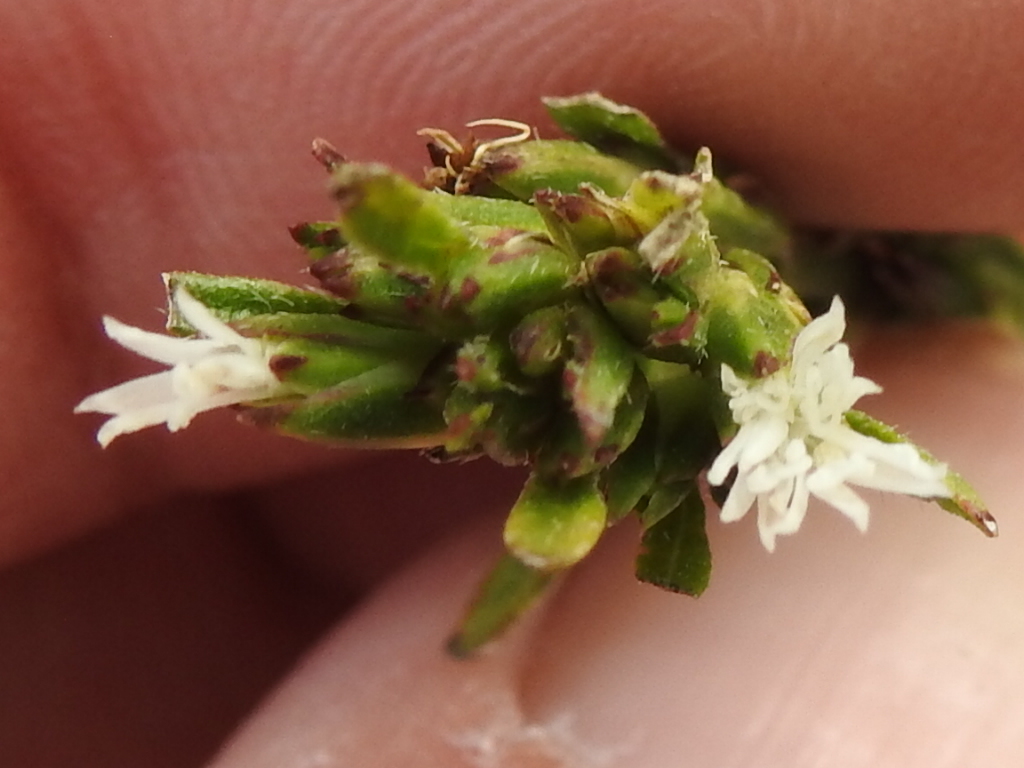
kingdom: Plantae
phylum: Tracheophyta
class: Magnoliopsida
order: Asterales
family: Asteraceae
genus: Pseudelephantopus
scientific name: Pseudelephantopus spicatus
